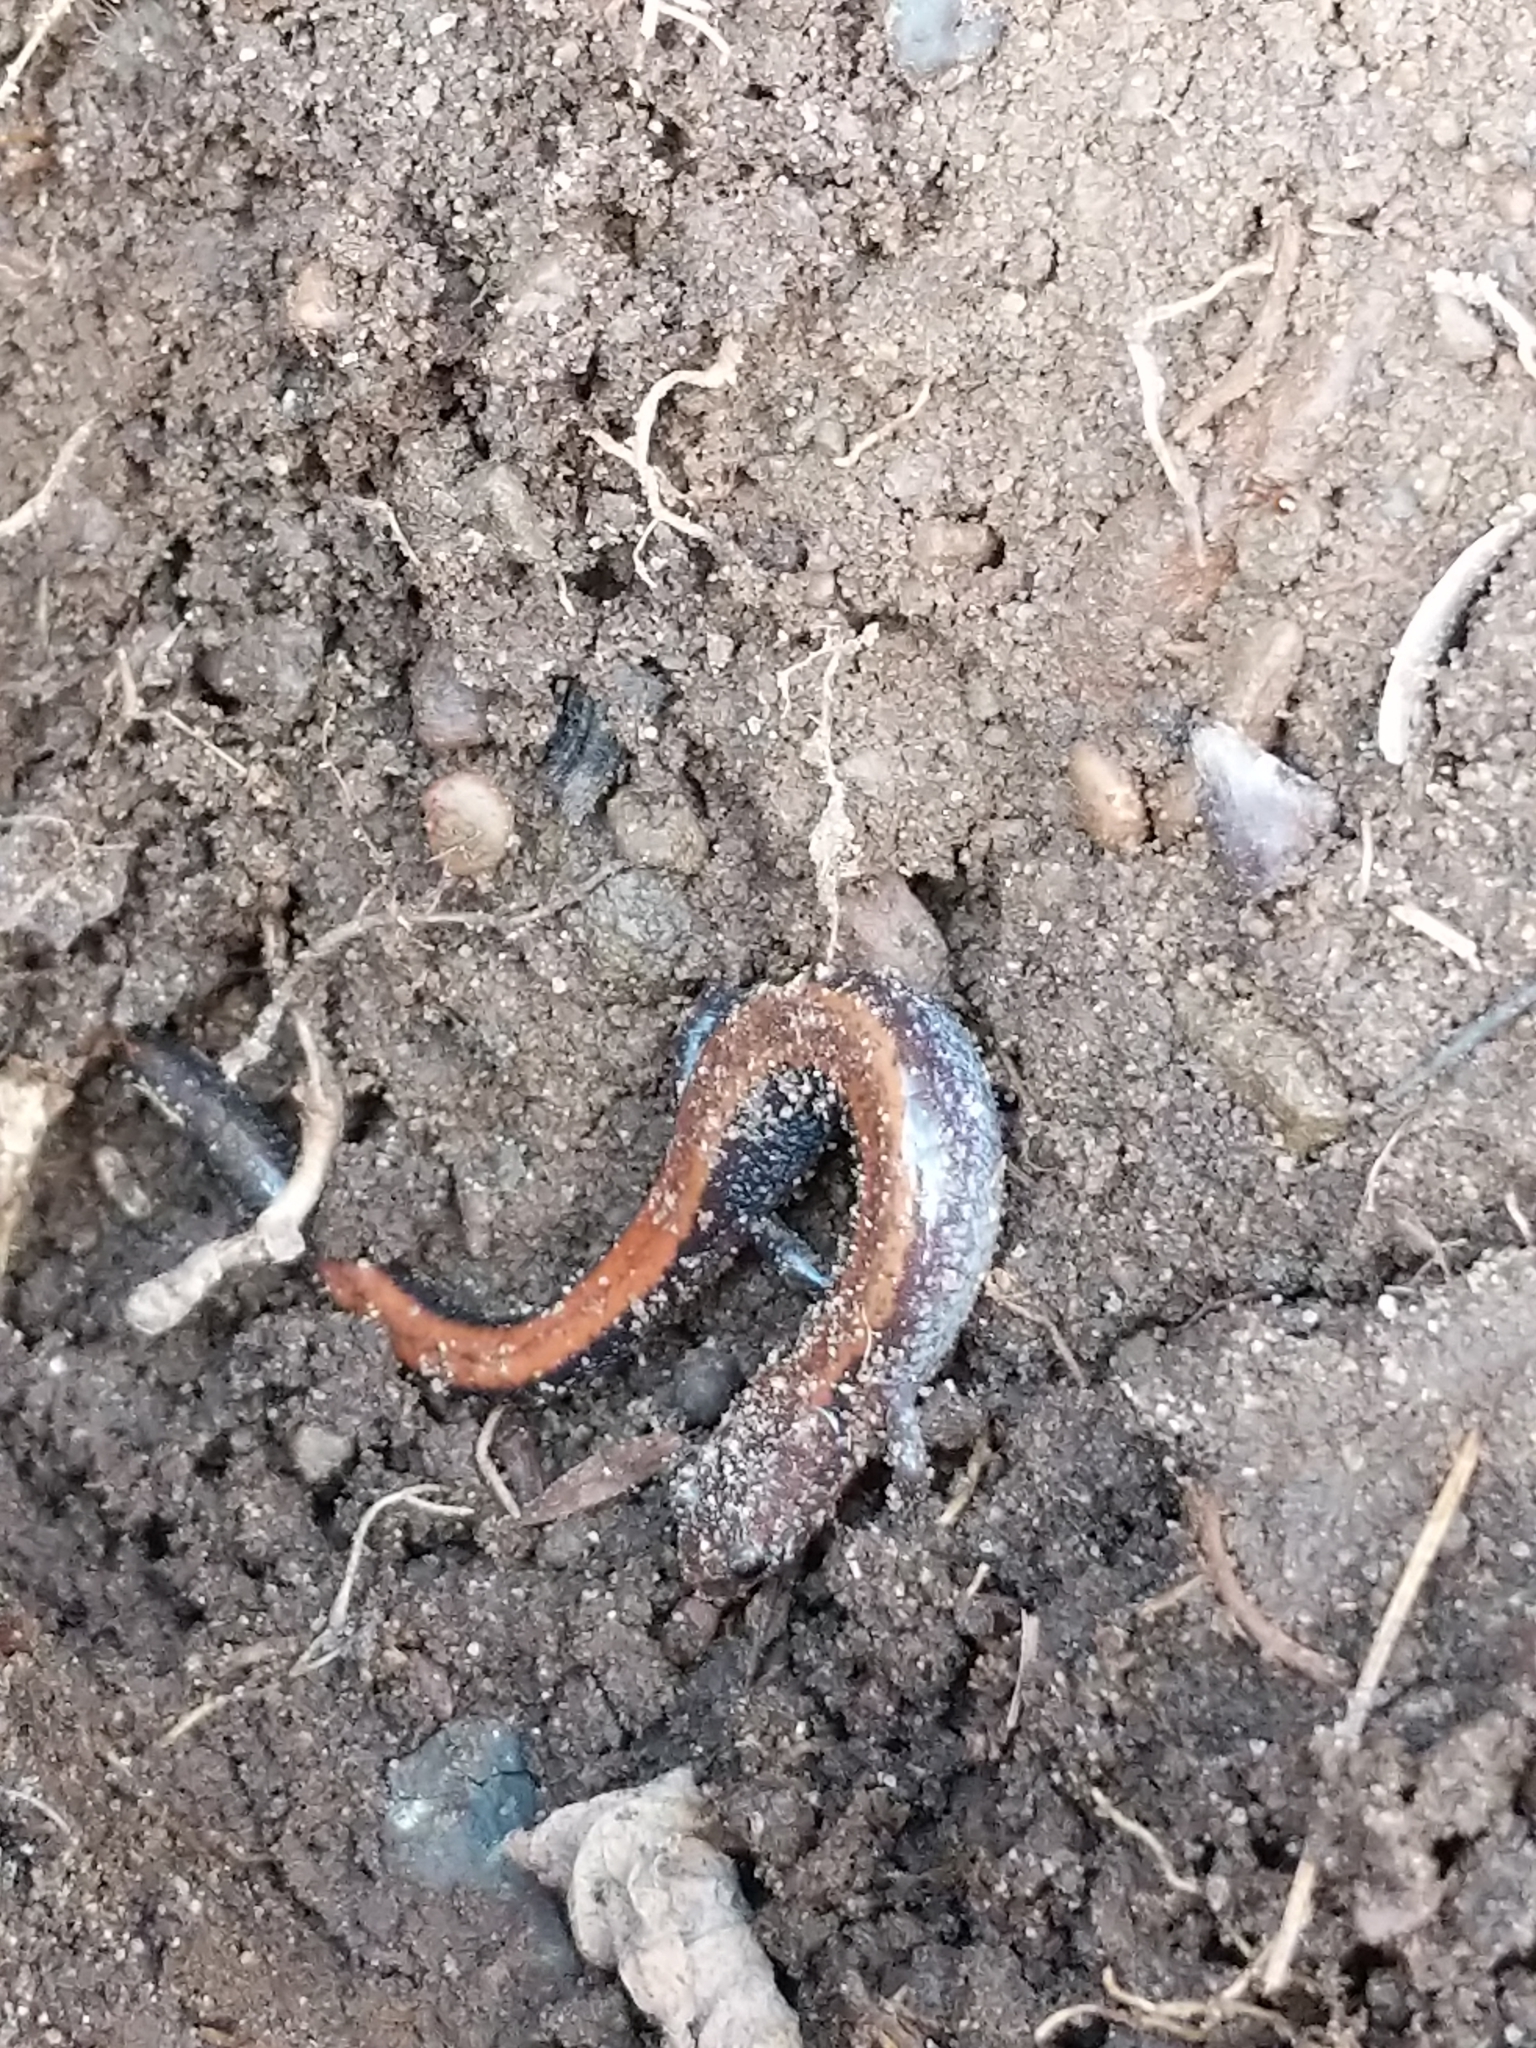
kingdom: Animalia
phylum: Chordata
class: Amphibia
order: Caudata
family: Plethodontidae
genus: Plethodon
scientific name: Plethodon cinereus
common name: Redback salamander
